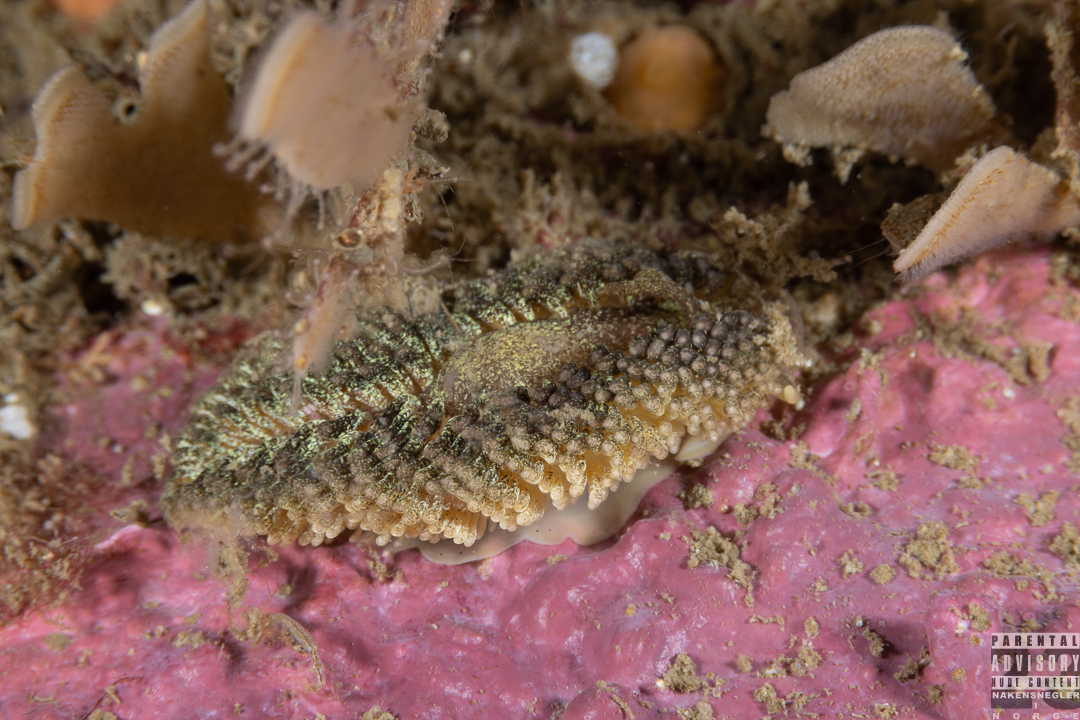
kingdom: Animalia
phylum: Mollusca
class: Gastropoda
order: Nudibranchia
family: Aeolidiidae
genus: Aeolidia
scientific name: Aeolidia papillosa
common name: Common grey sea slug
